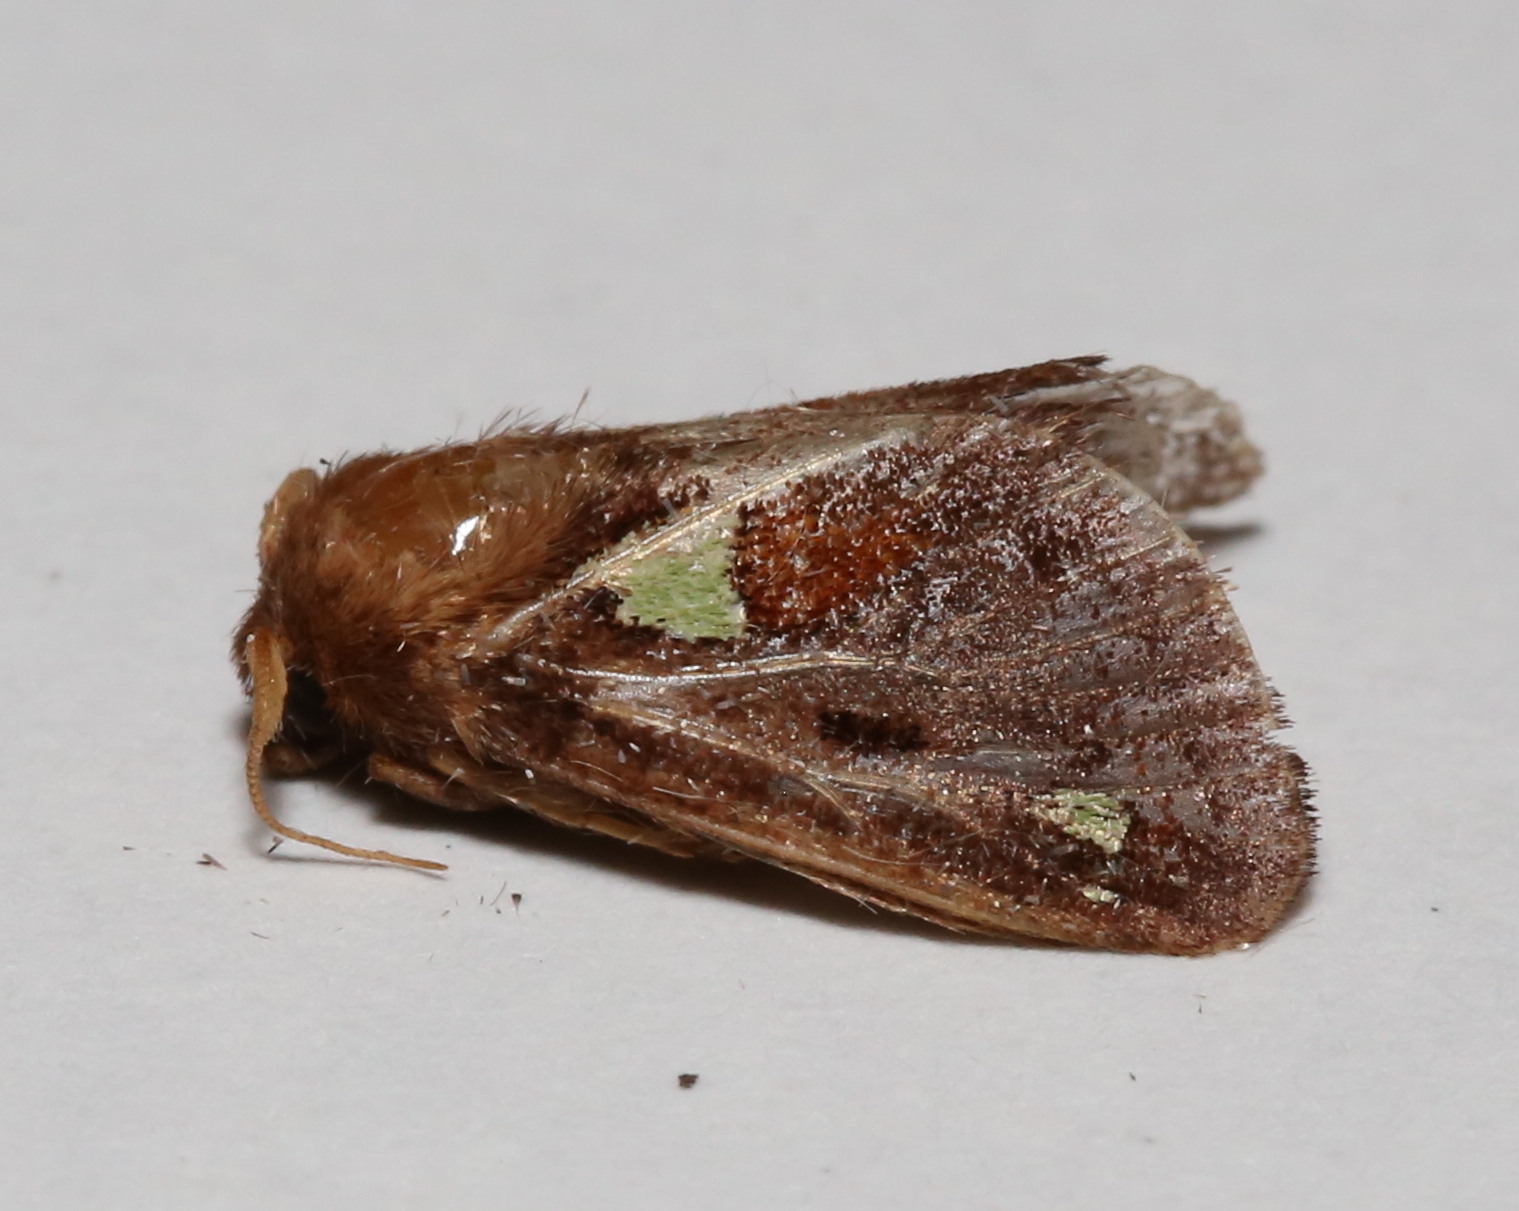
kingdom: Animalia
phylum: Arthropoda
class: Insecta
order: Lepidoptera
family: Limacodidae
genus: Euclea
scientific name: Euclea delphinii
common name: Spiny oak-slug moth
